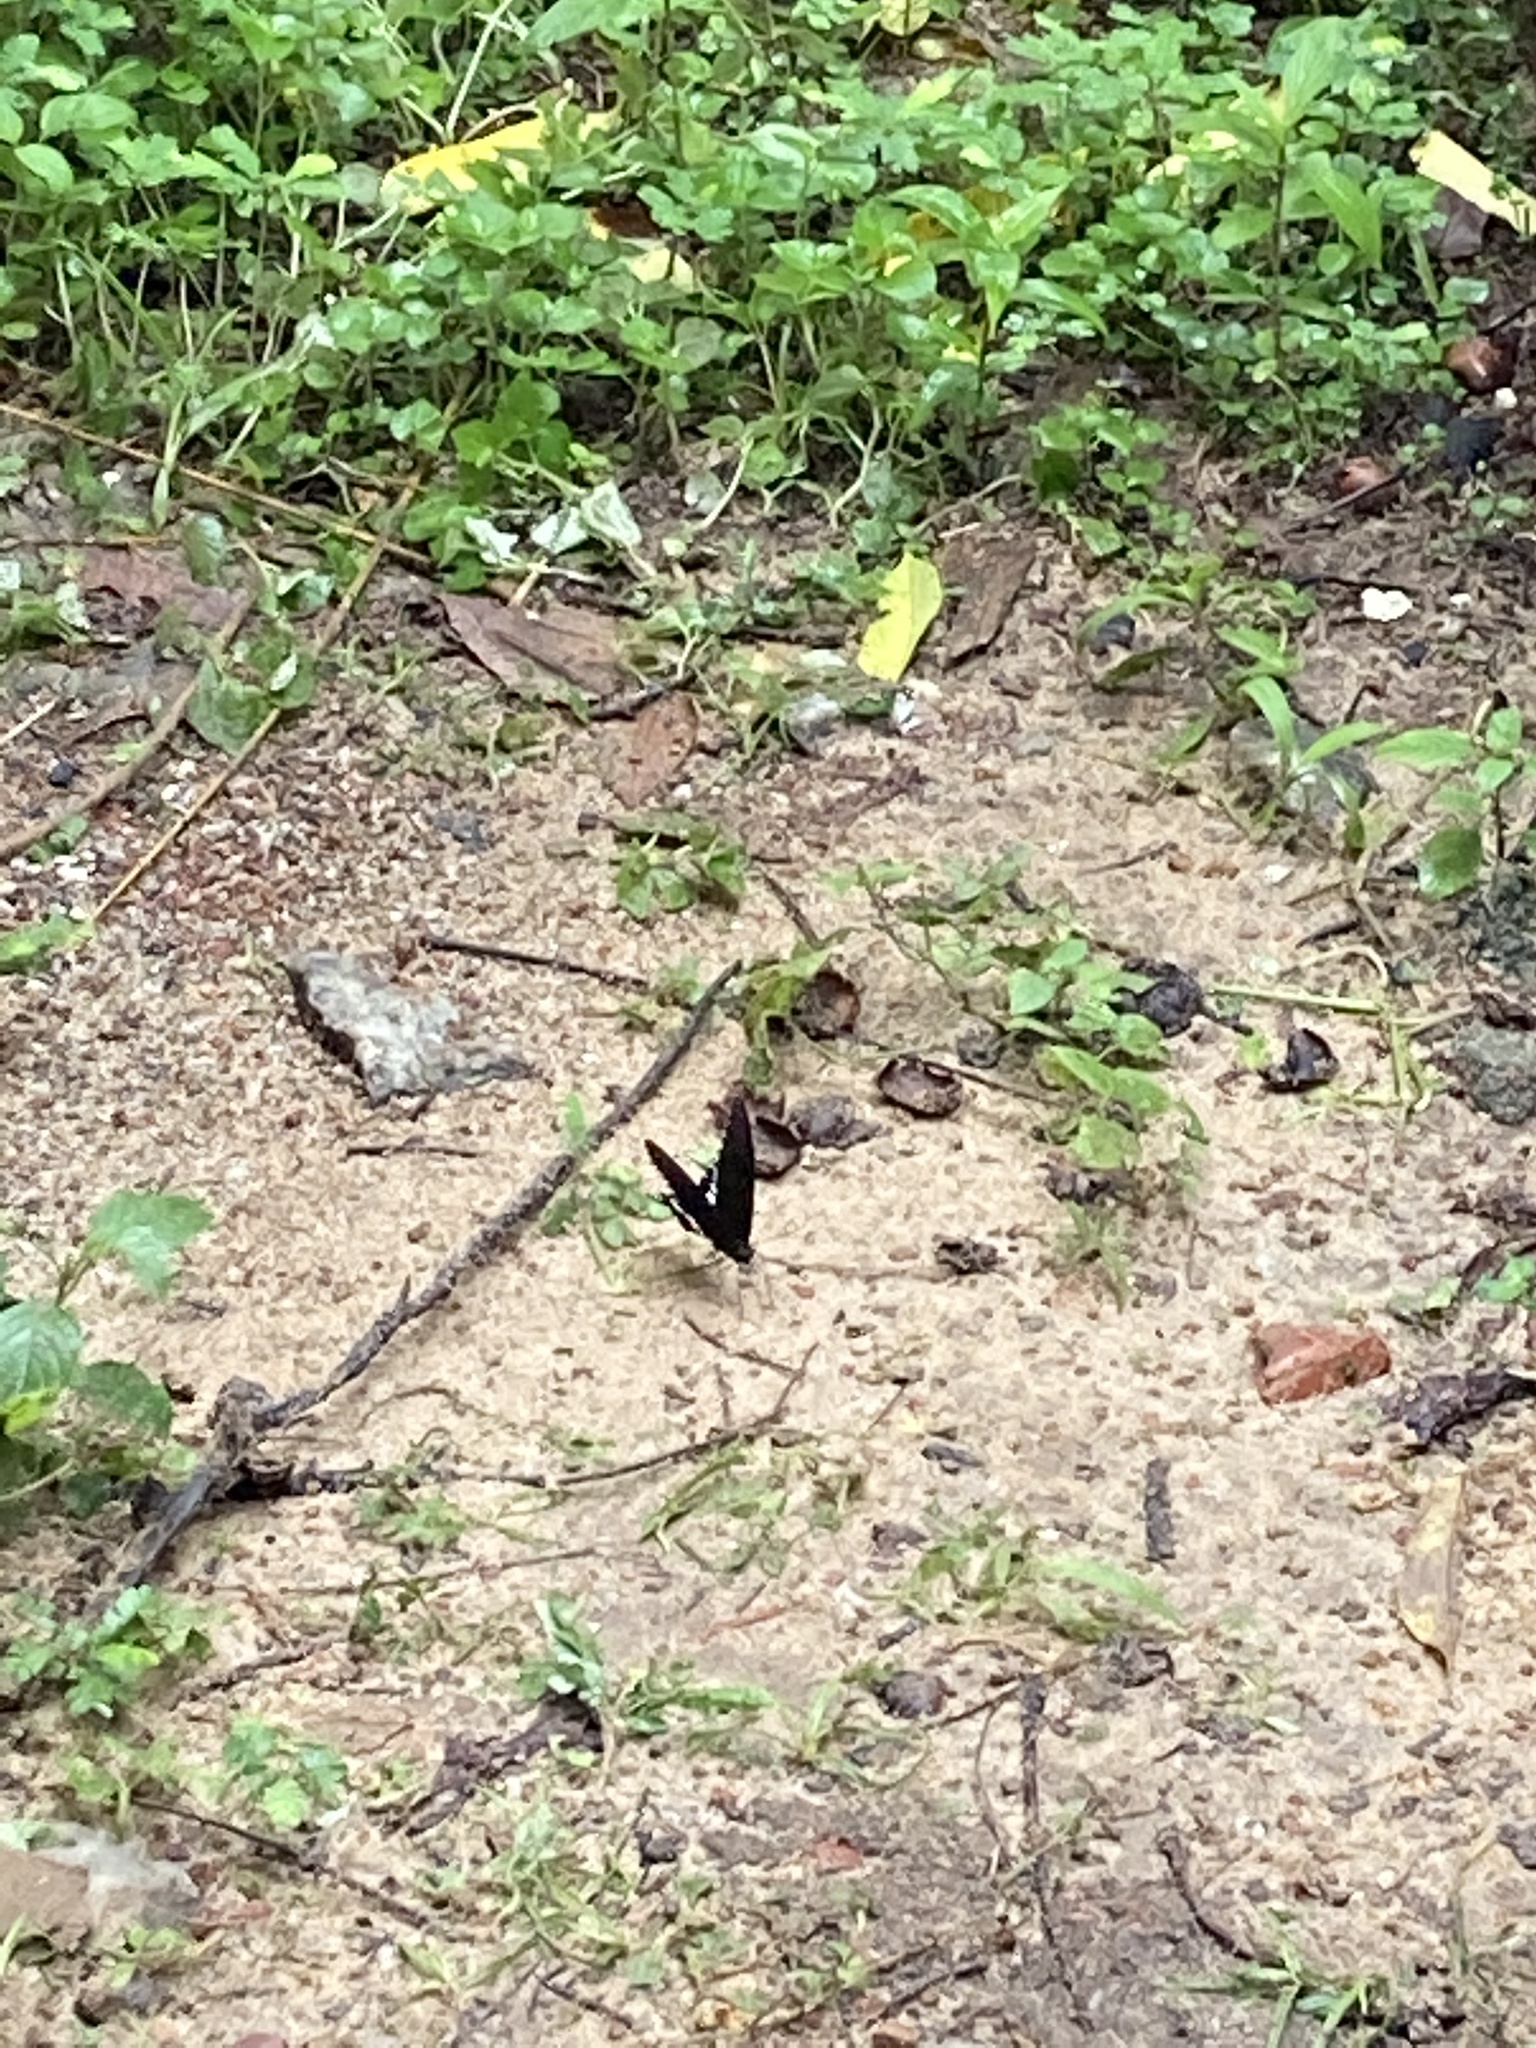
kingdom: Animalia
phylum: Arthropoda
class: Insecta
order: Lepidoptera
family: Papilionidae
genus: Papilio
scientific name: Papilio polytes
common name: Common mormon
